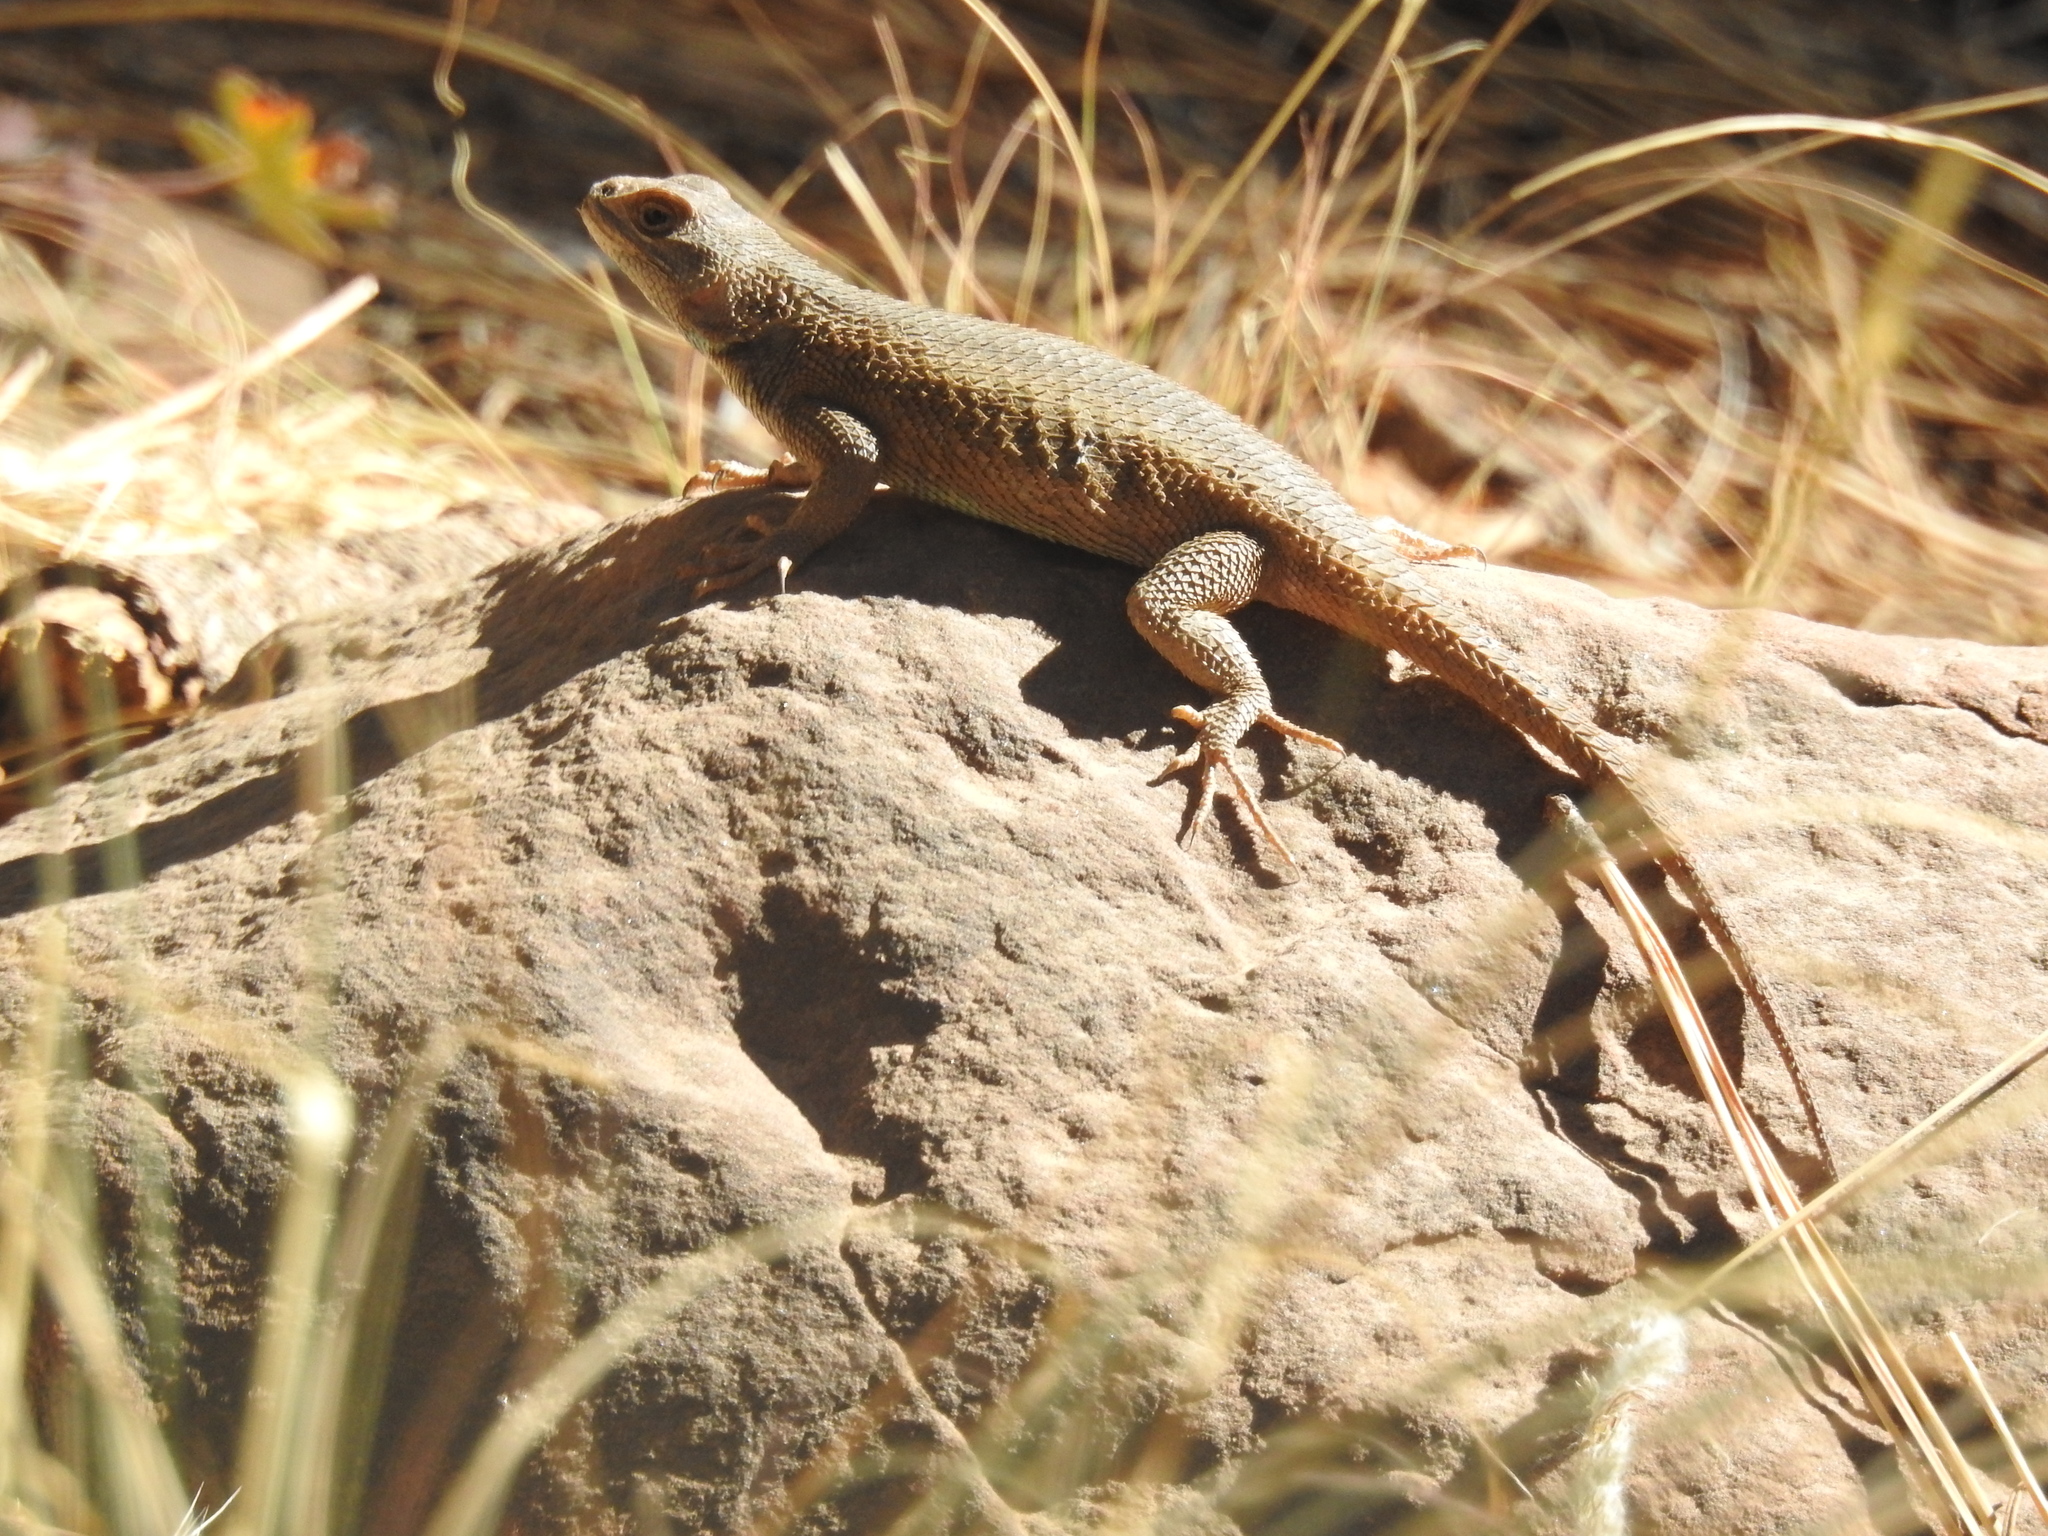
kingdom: Animalia
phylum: Chordata
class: Squamata
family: Phrynosomatidae
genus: Sceloporus
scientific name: Sceloporus tristichus
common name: Plateau fence lizard
